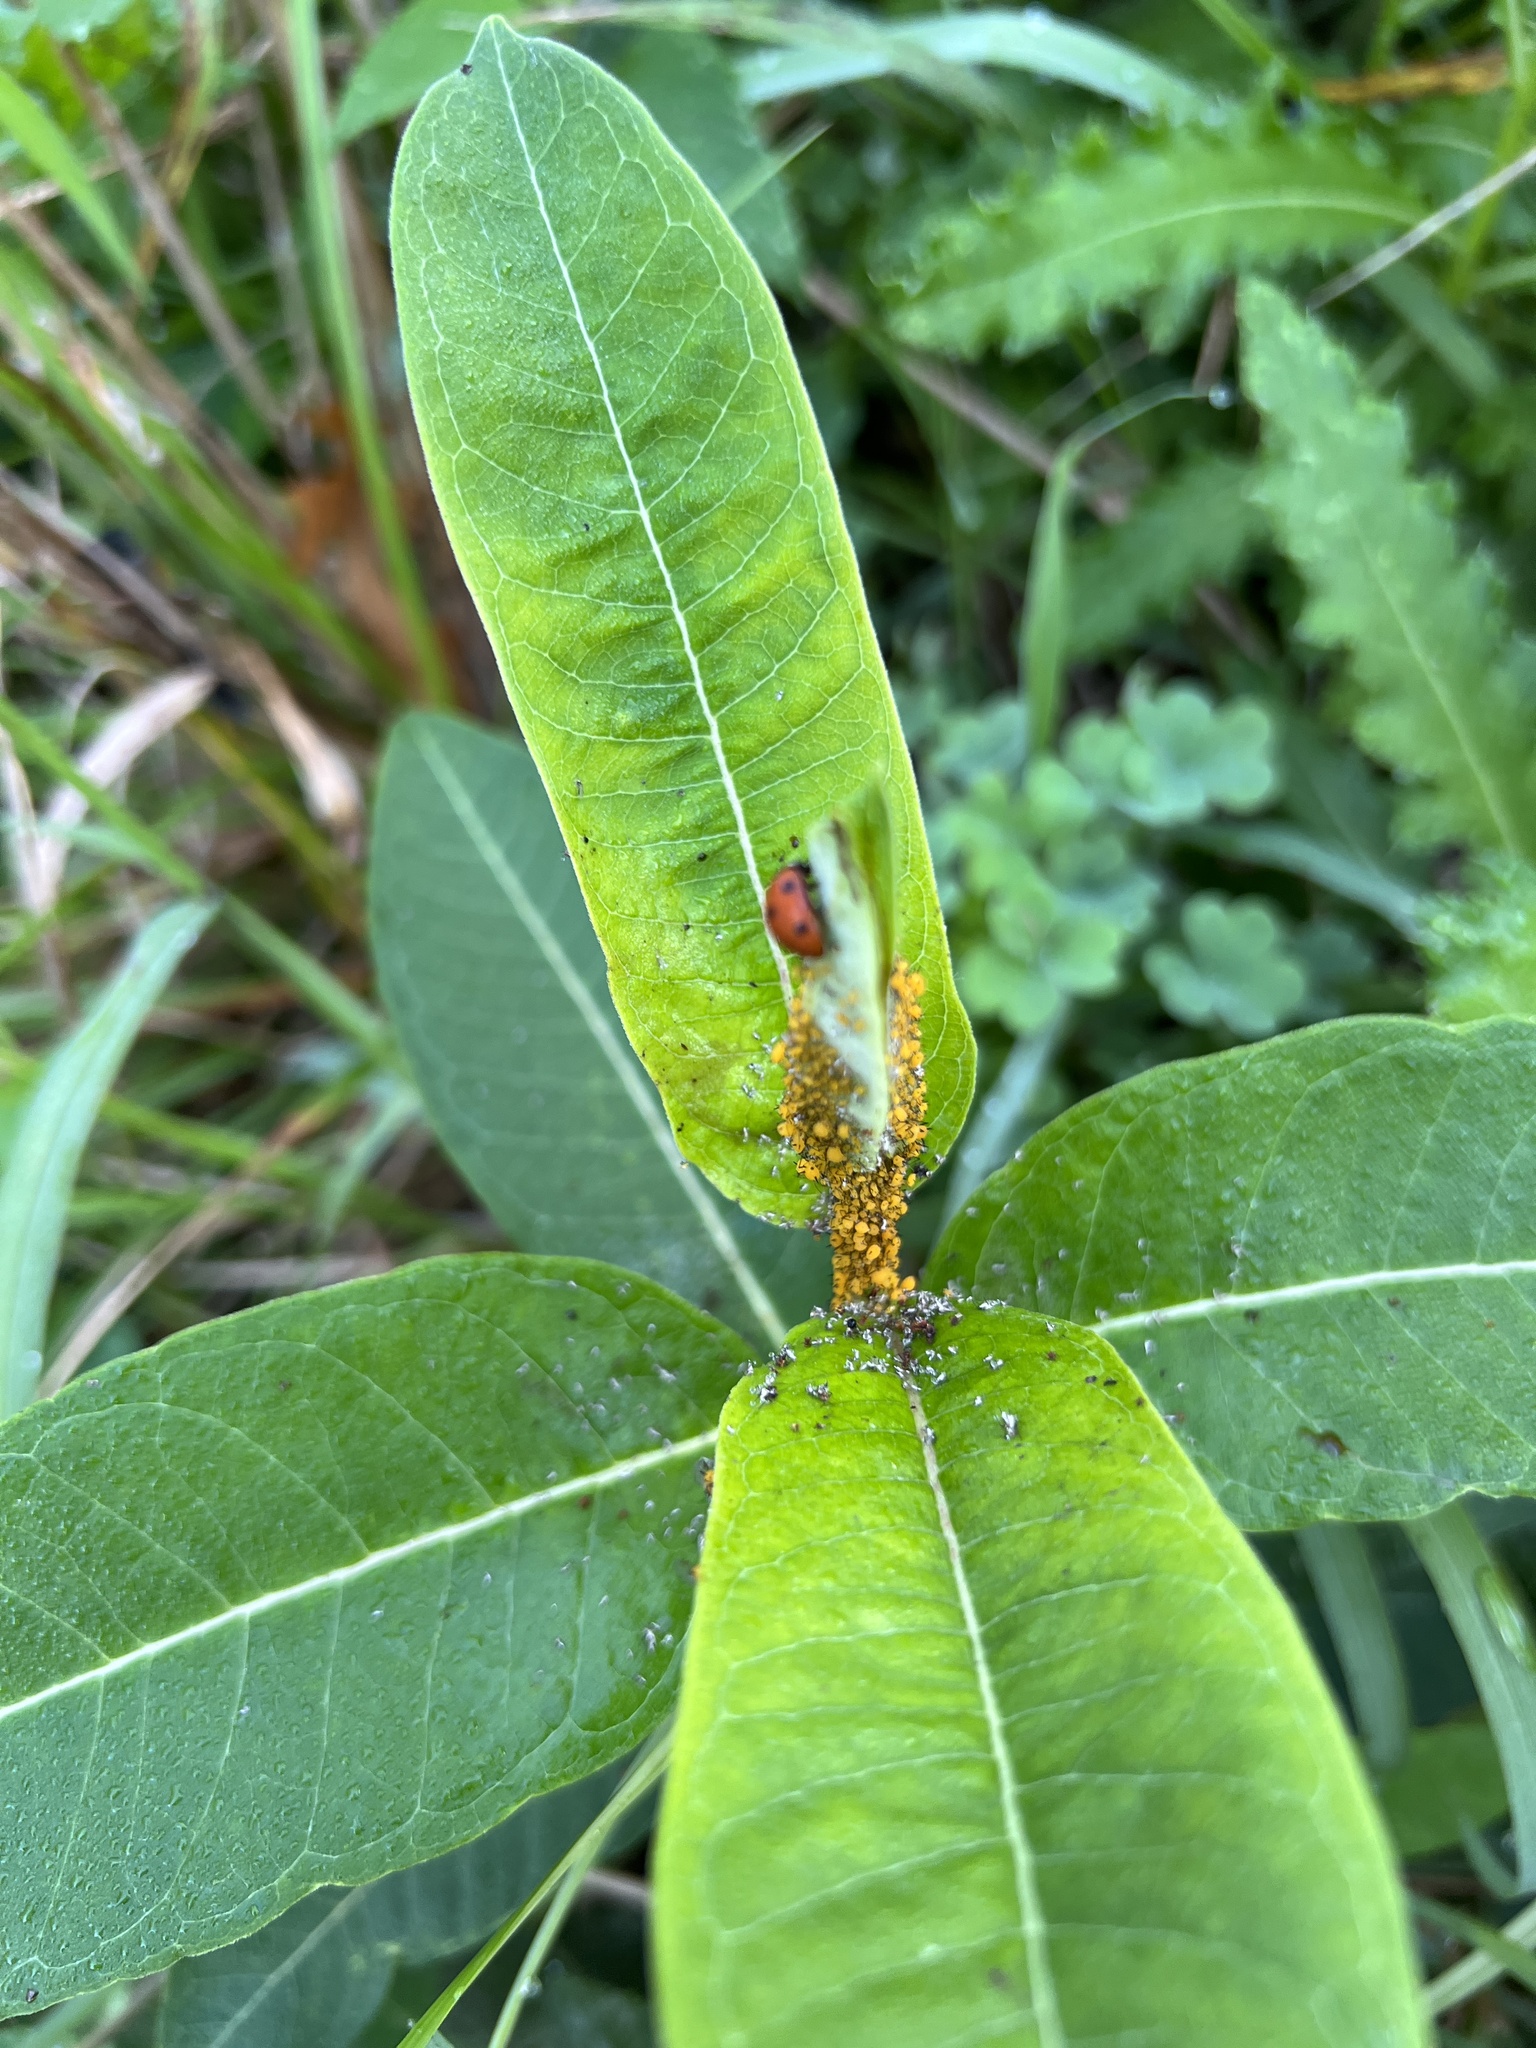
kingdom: Animalia
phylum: Arthropoda
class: Insecta
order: Hemiptera
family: Aphididae
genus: Aphis
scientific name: Aphis nerii
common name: Oleander aphid
